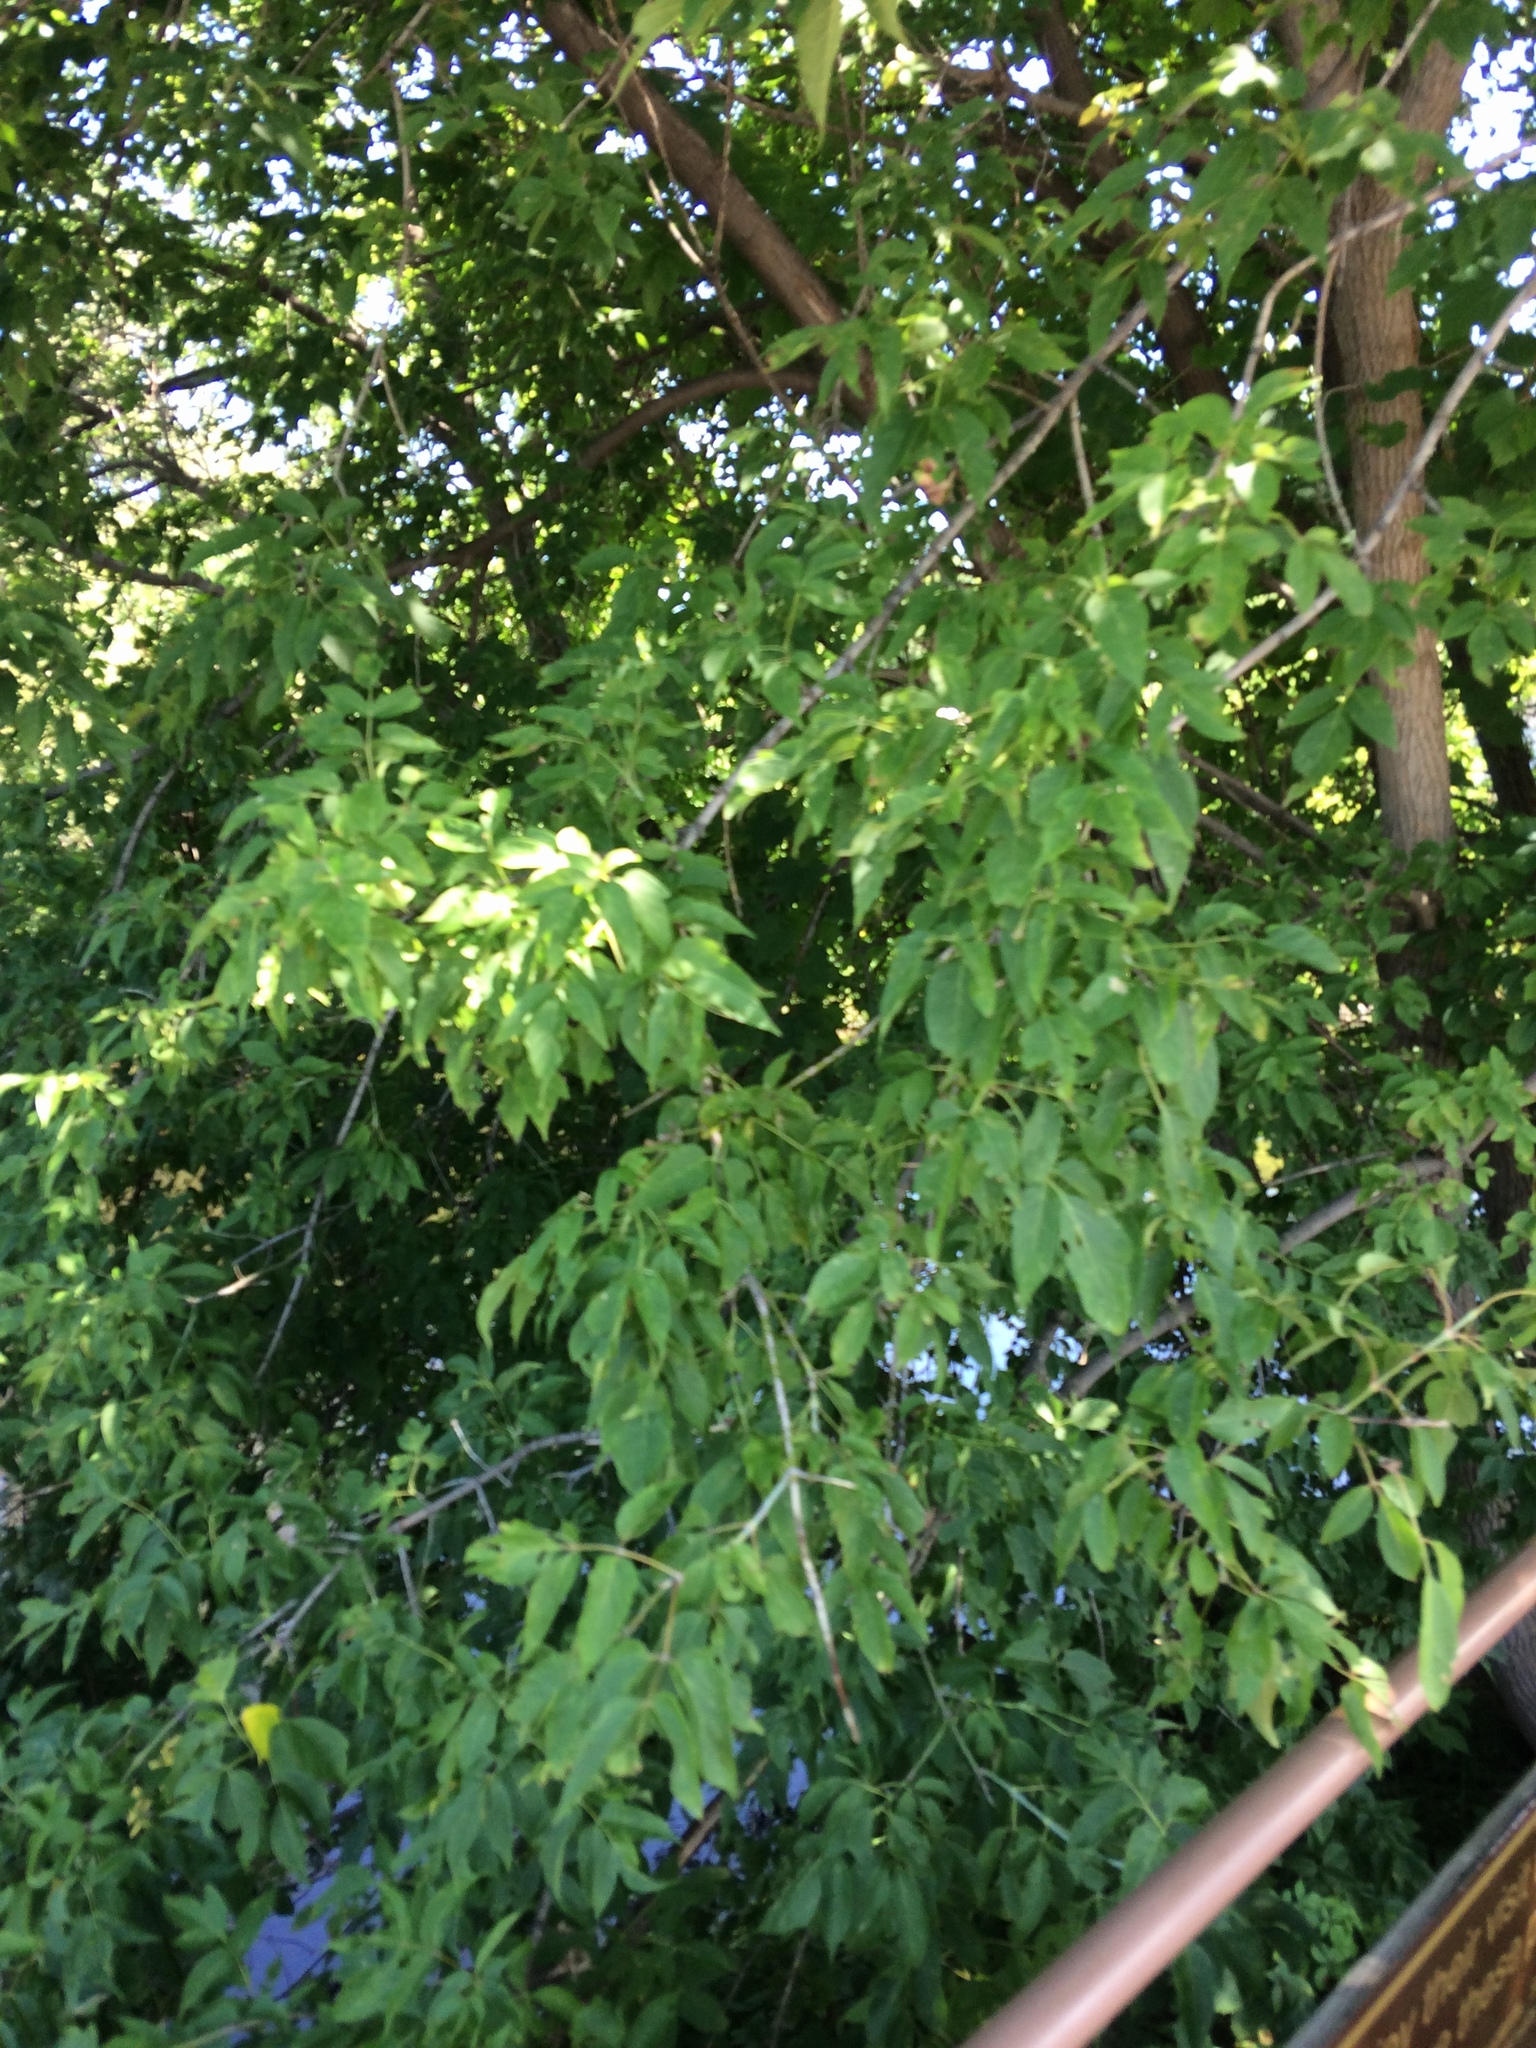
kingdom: Plantae
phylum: Tracheophyta
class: Magnoliopsida
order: Sapindales
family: Sapindaceae
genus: Acer
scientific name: Acer negundo
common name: Ashleaf maple
